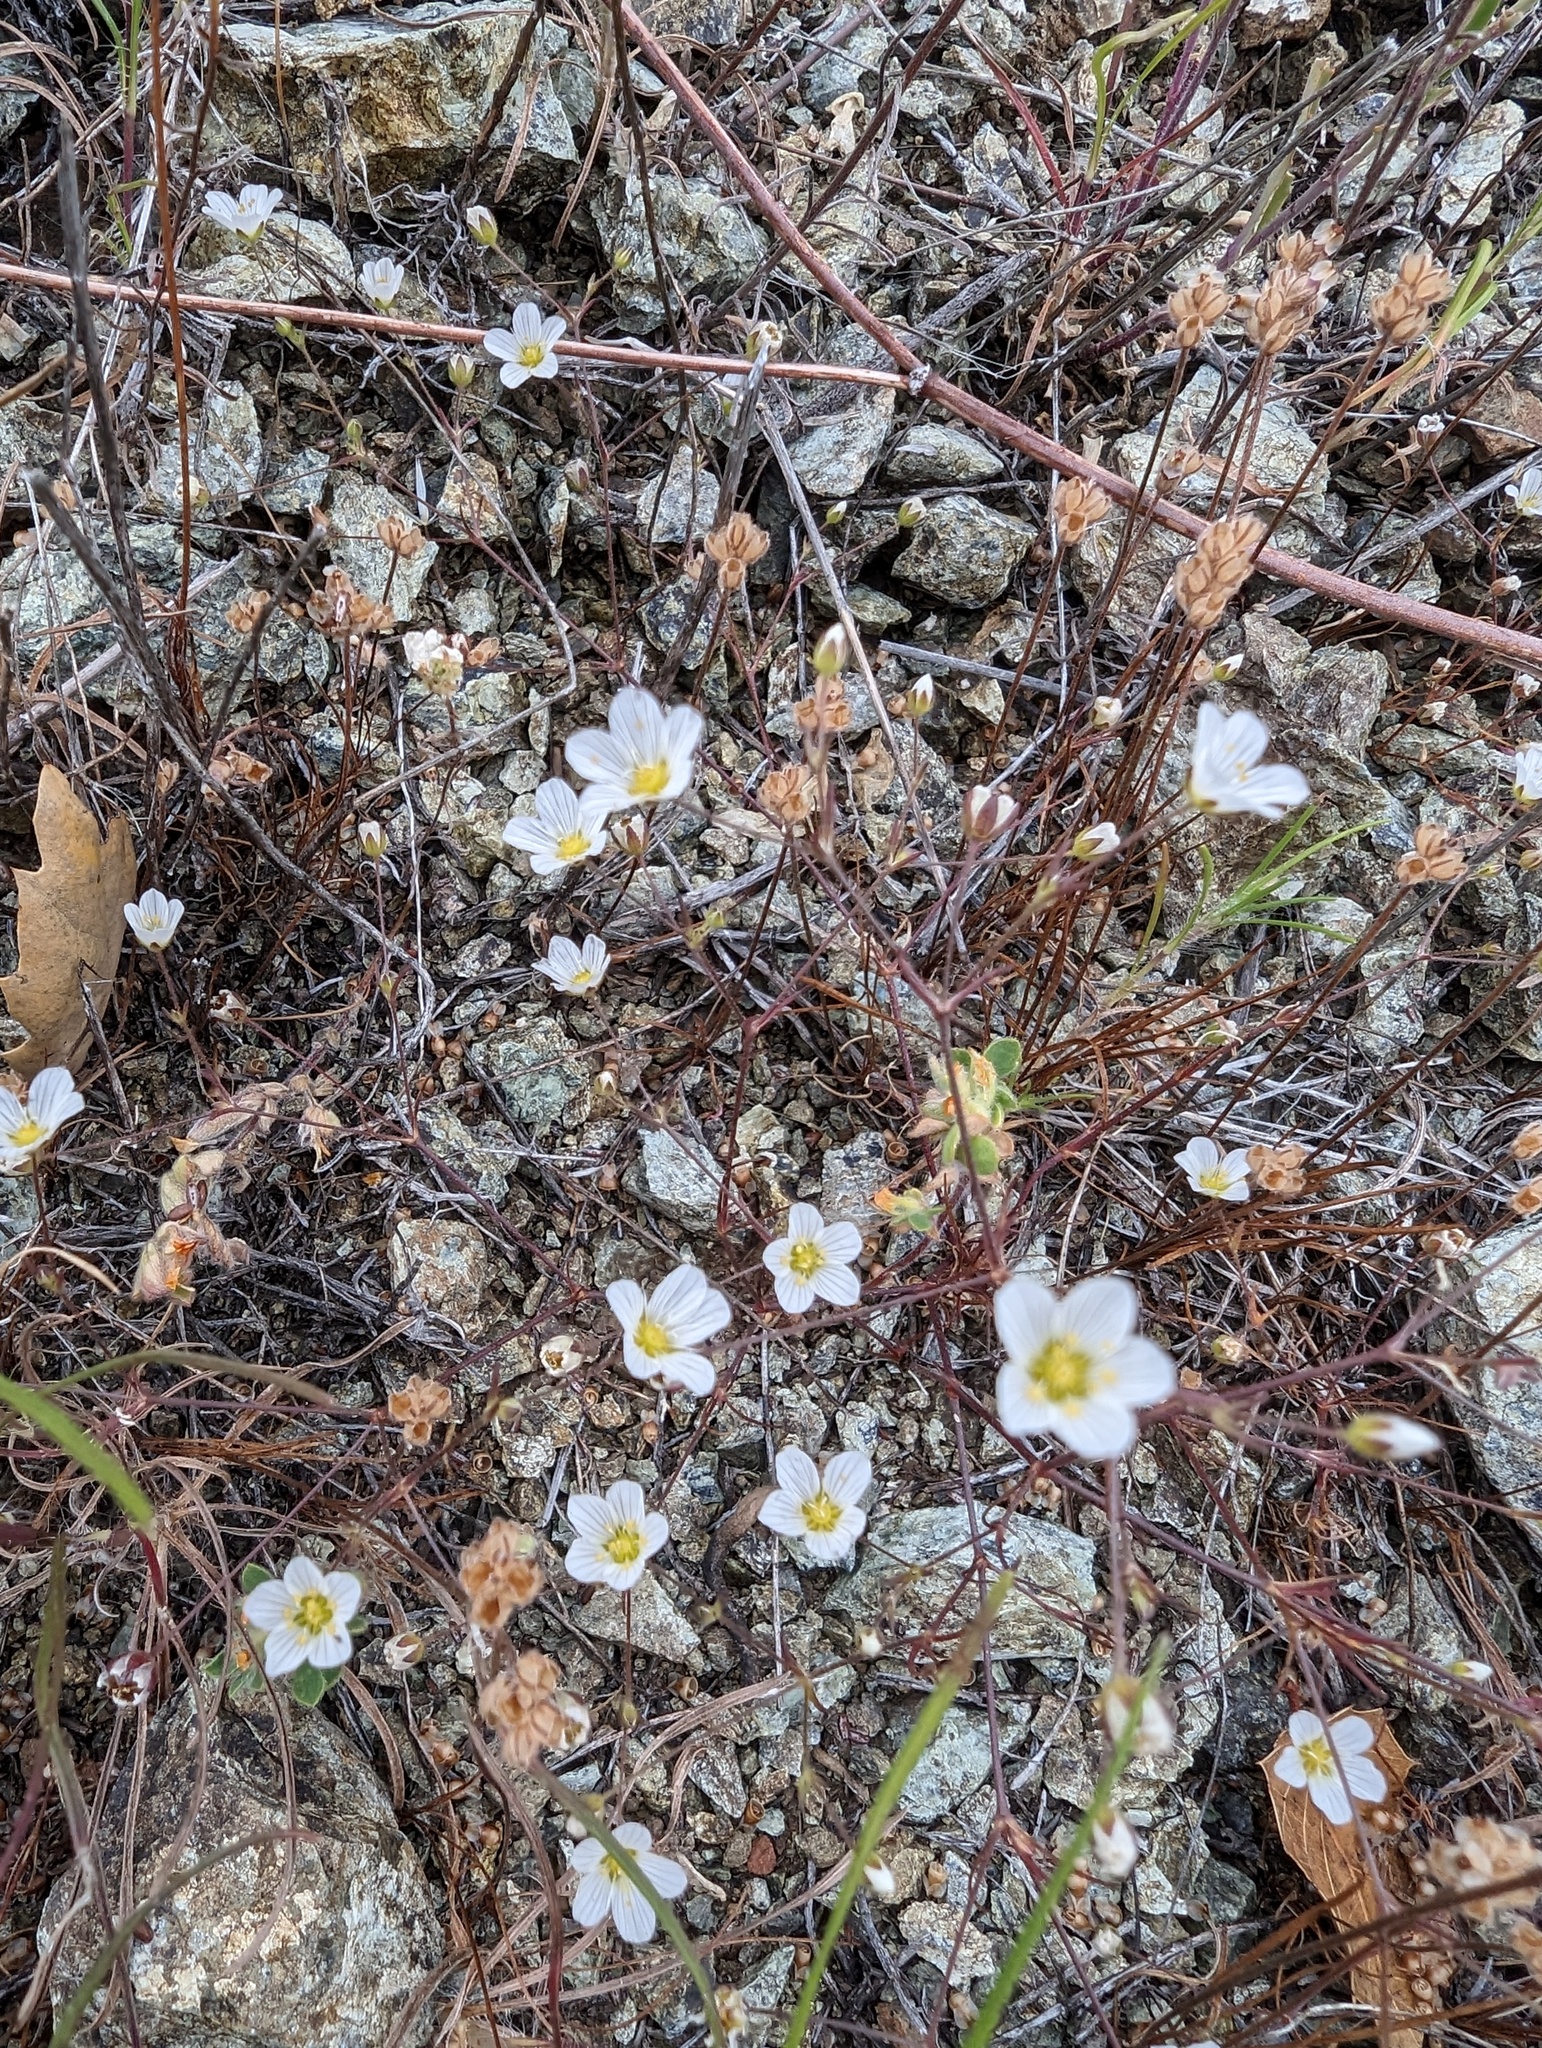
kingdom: Plantae
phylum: Tracheophyta
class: Magnoliopsida
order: Caryophyllales
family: Caryophyllaceae
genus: Sabulina
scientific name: Sabulina douglasii
